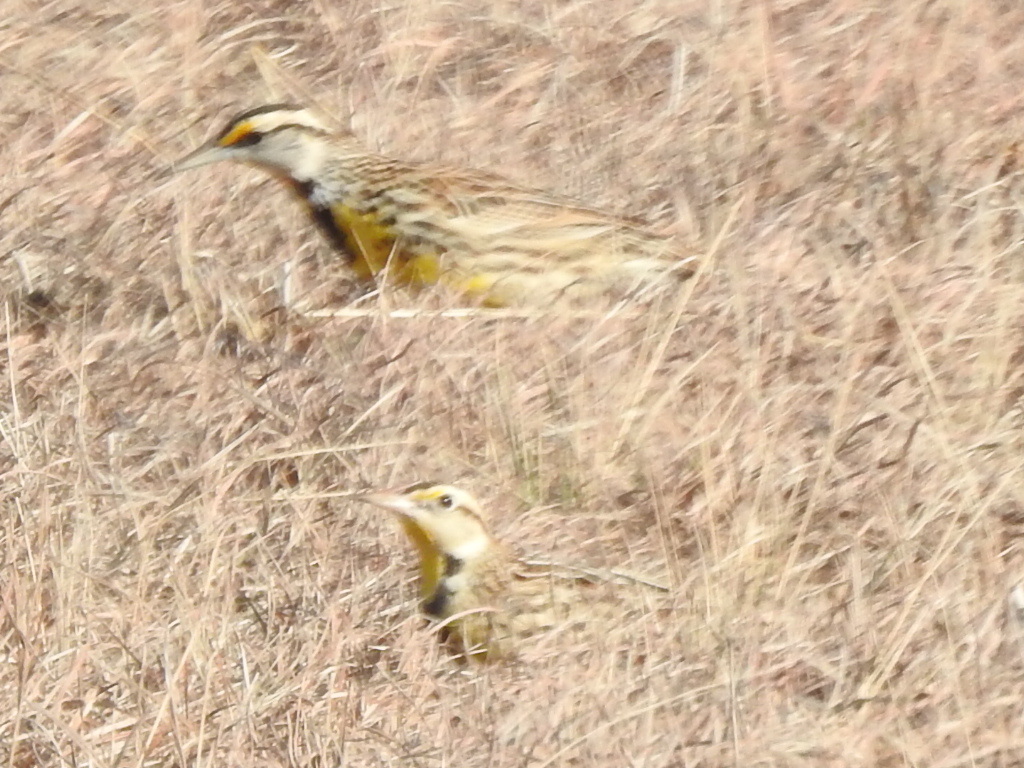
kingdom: Animalia
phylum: Chordata
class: Aves
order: Passeriformes
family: Icteridae
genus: Sturnella
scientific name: Sturnella magna
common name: Eastern meadowlark
